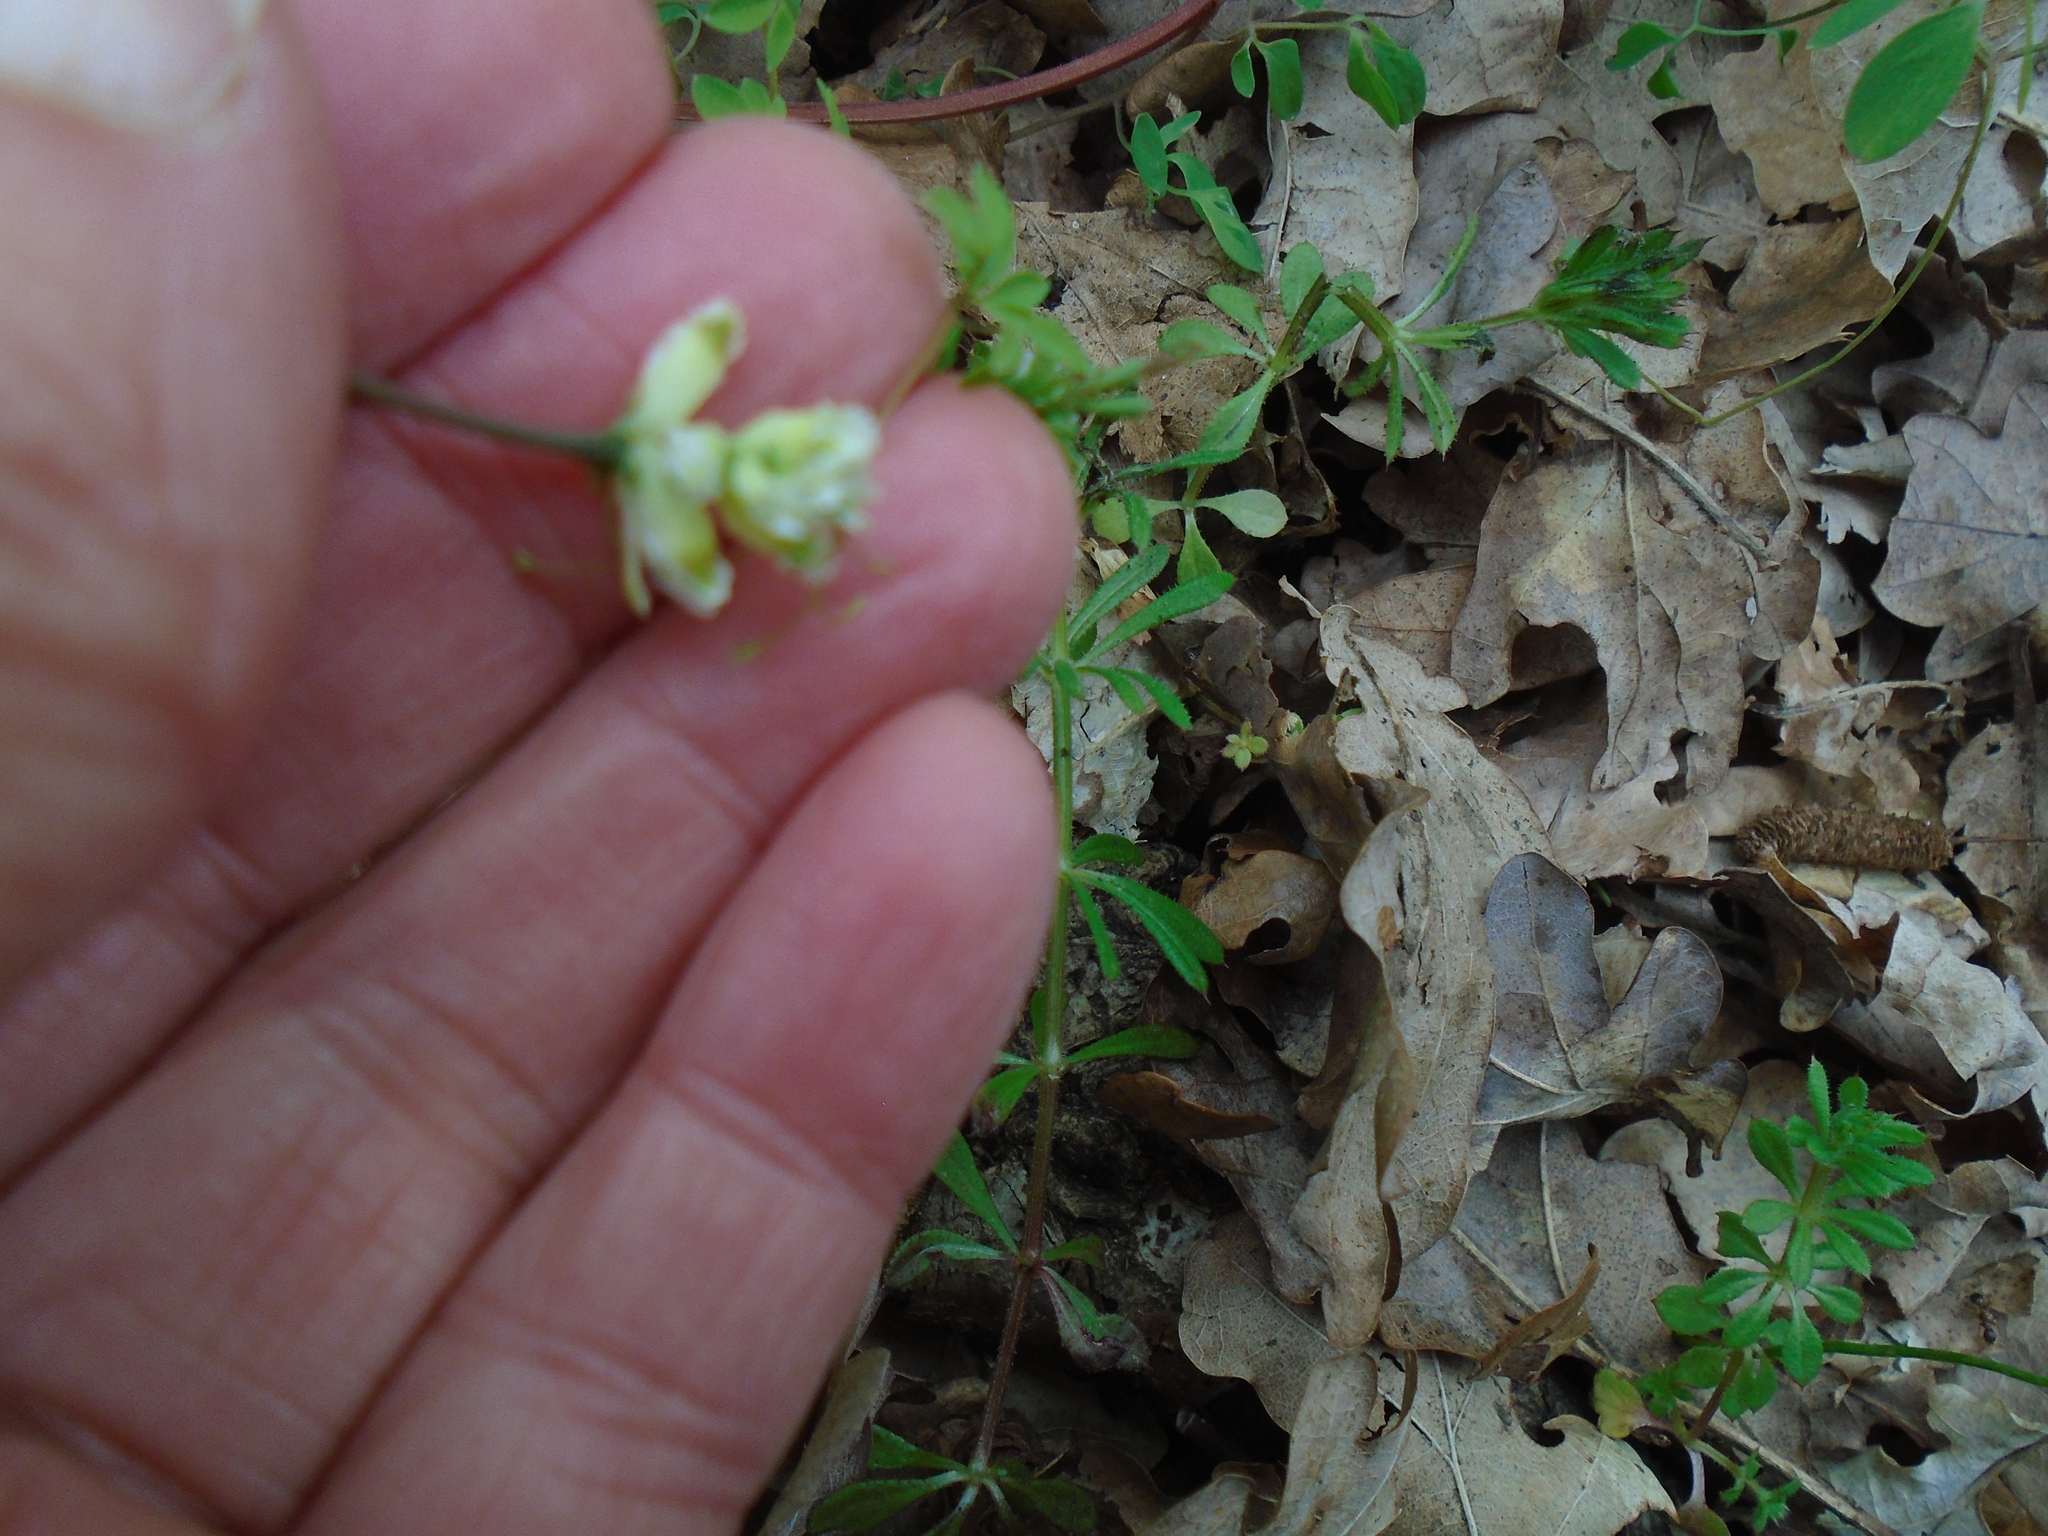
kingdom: Plantae
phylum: Tracheophyta
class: Magnoliopsida
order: Ranunculales
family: Papaveraceae
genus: Ceratocapnos
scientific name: Ceratocapnos claviculata
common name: Climbing corydalis
